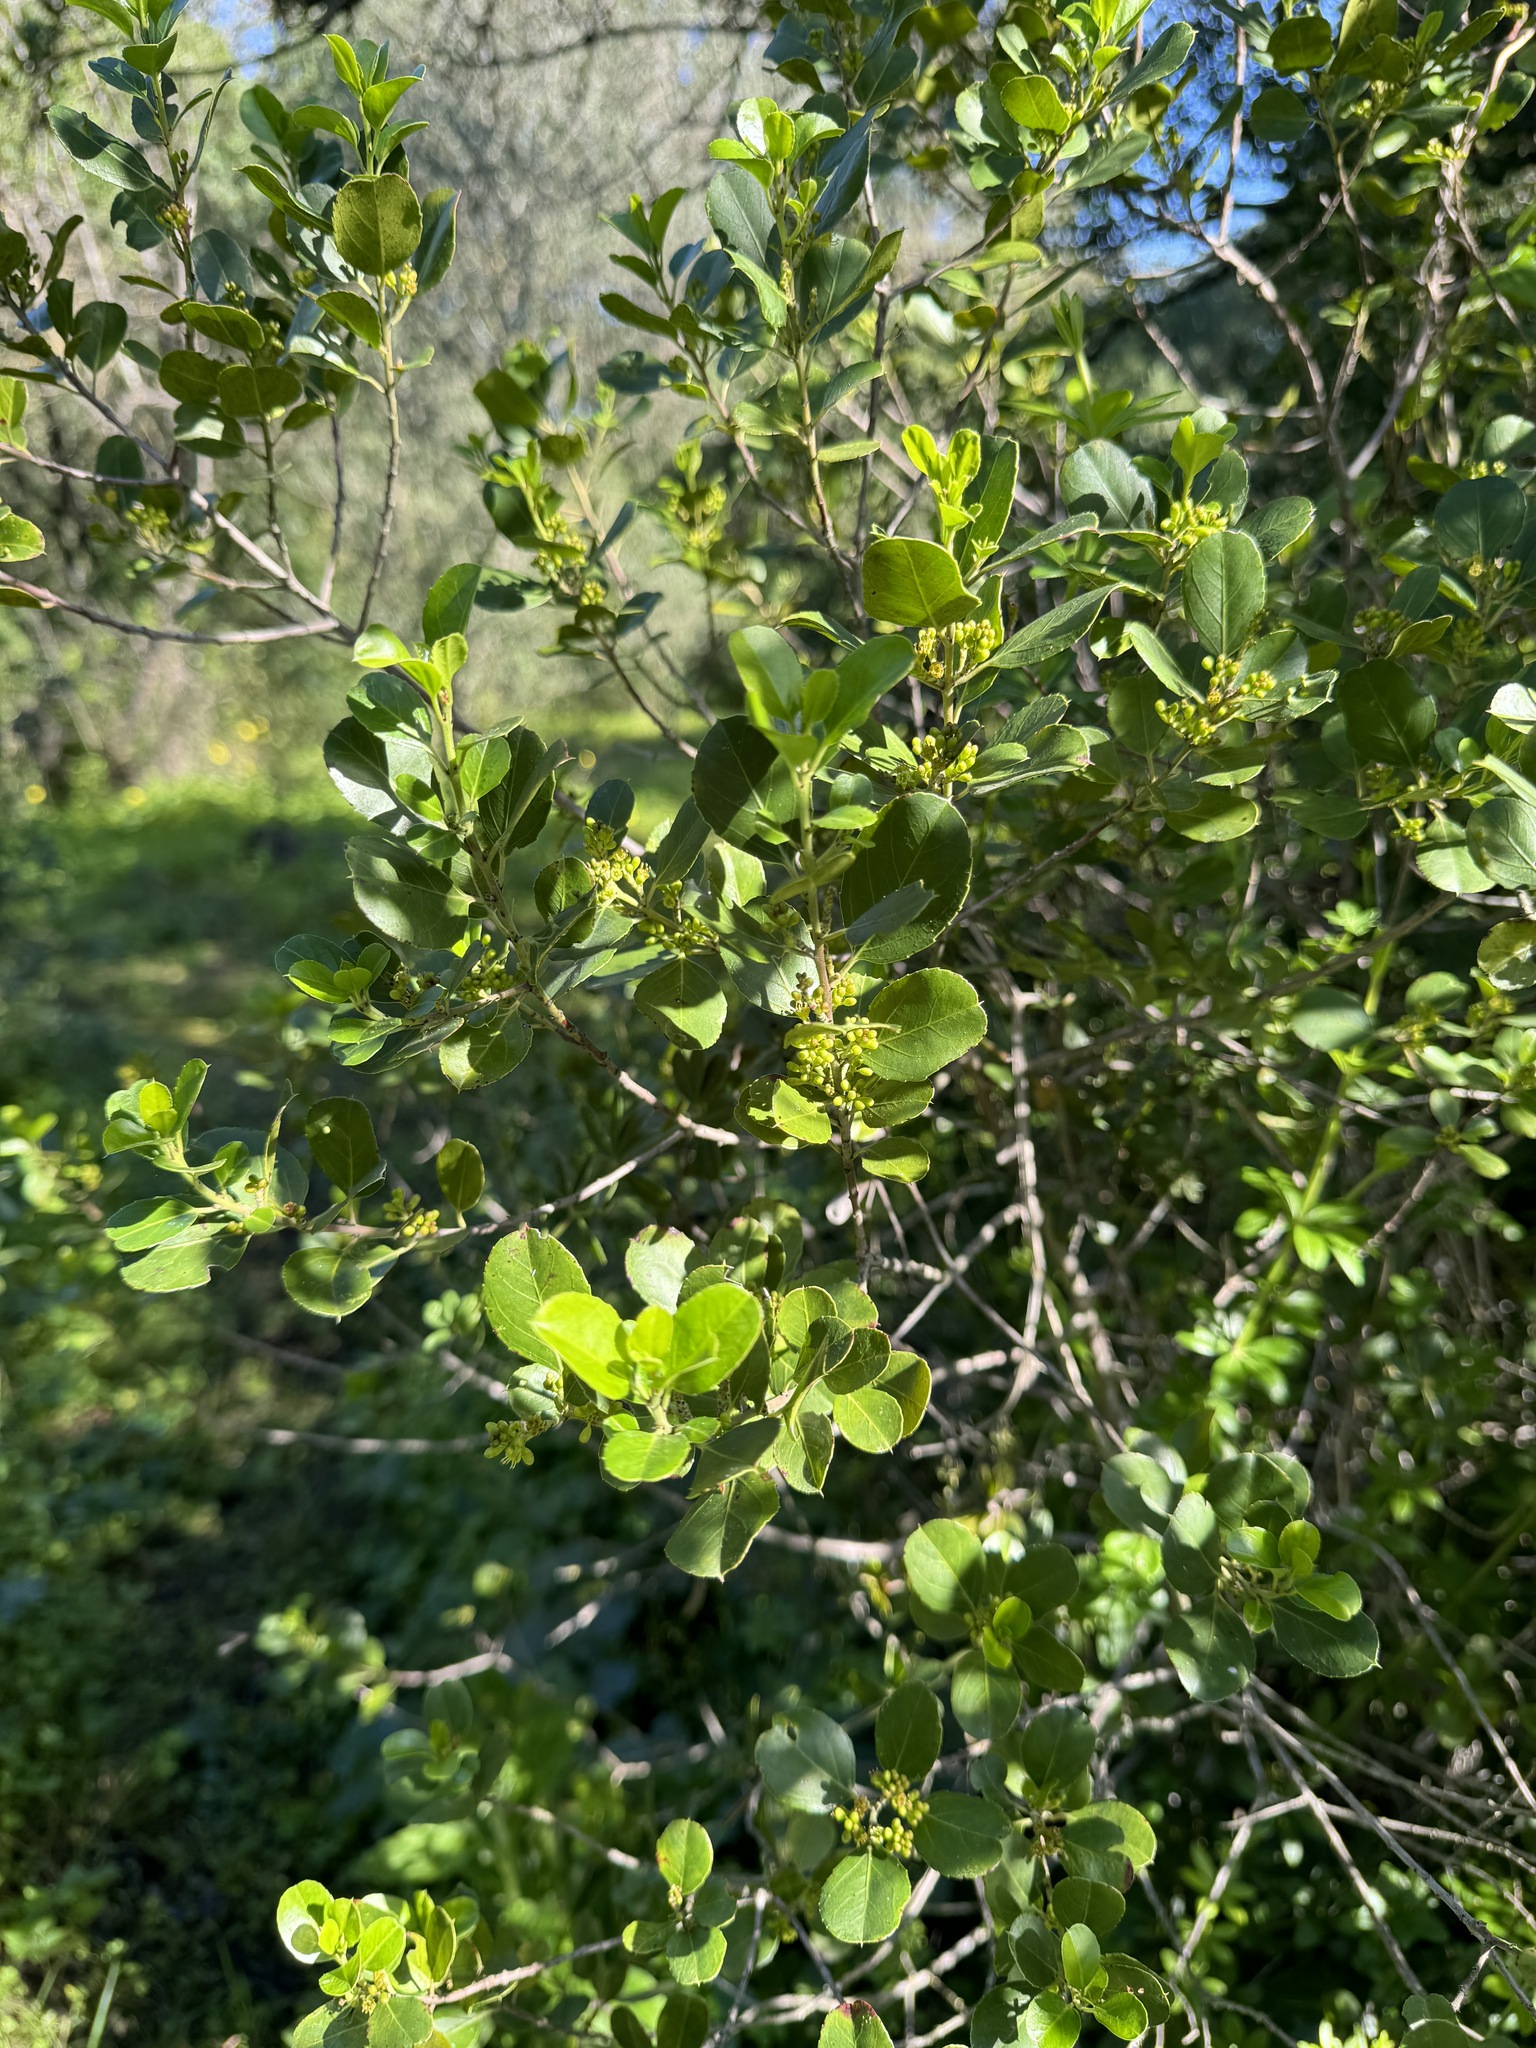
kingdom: Plantae
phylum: Tracheophyta
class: Magnoliopsida
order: Rosales
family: Rhamnaceae
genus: Rhamnus
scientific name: Rhamnus alaternus
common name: Mediterranean buckthorn
